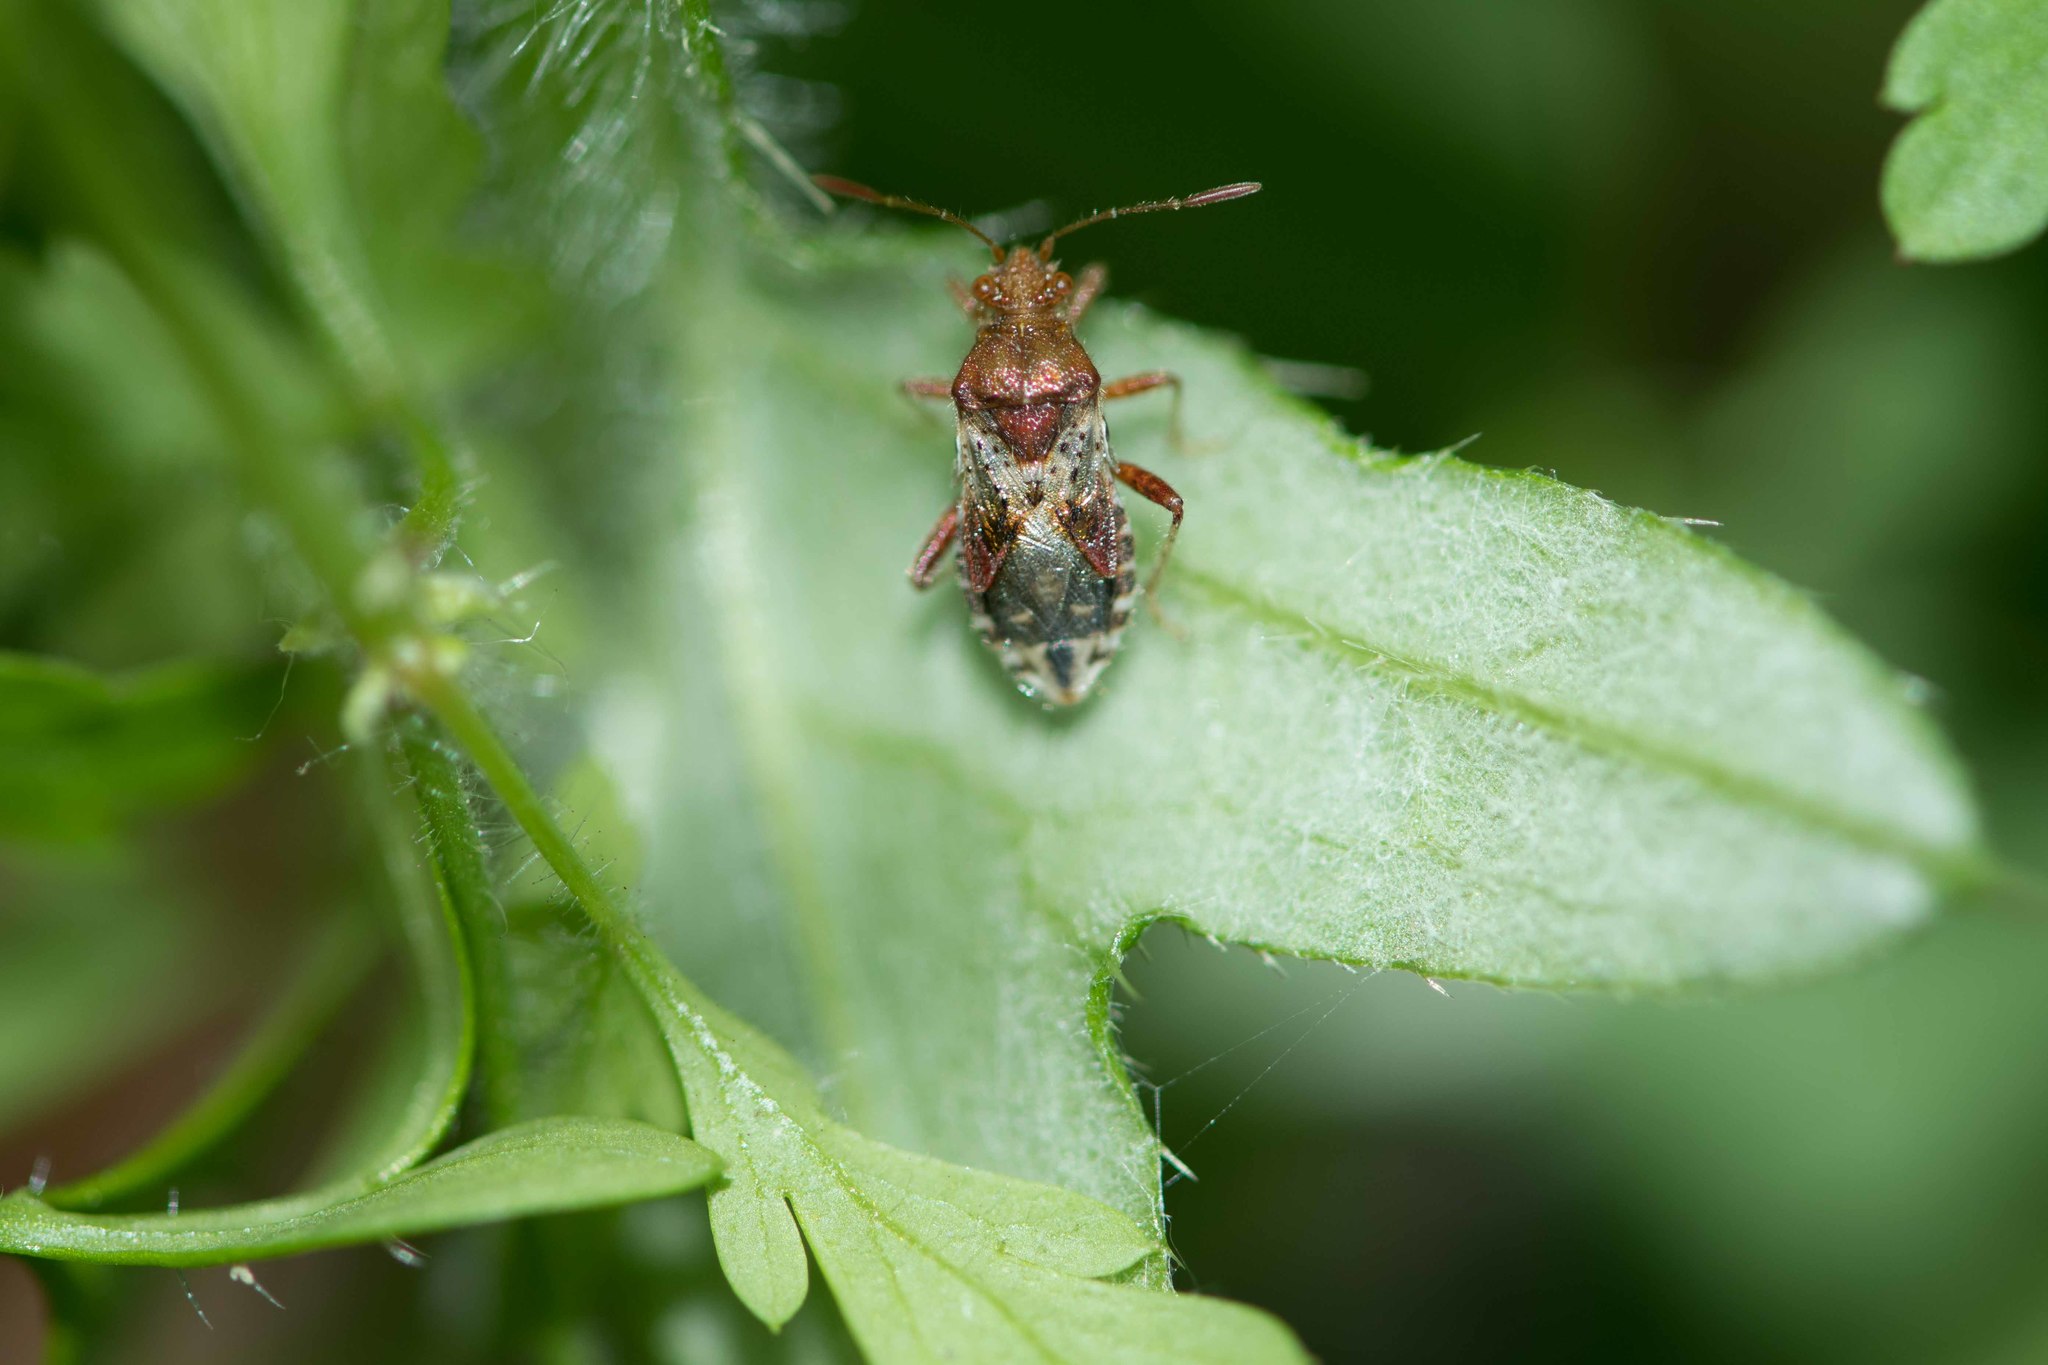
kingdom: Animalia
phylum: Arthropoda
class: Insecta
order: Hemiptera
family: Rhopalidae
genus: Rhopalus
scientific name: Rhopalus subrufus
